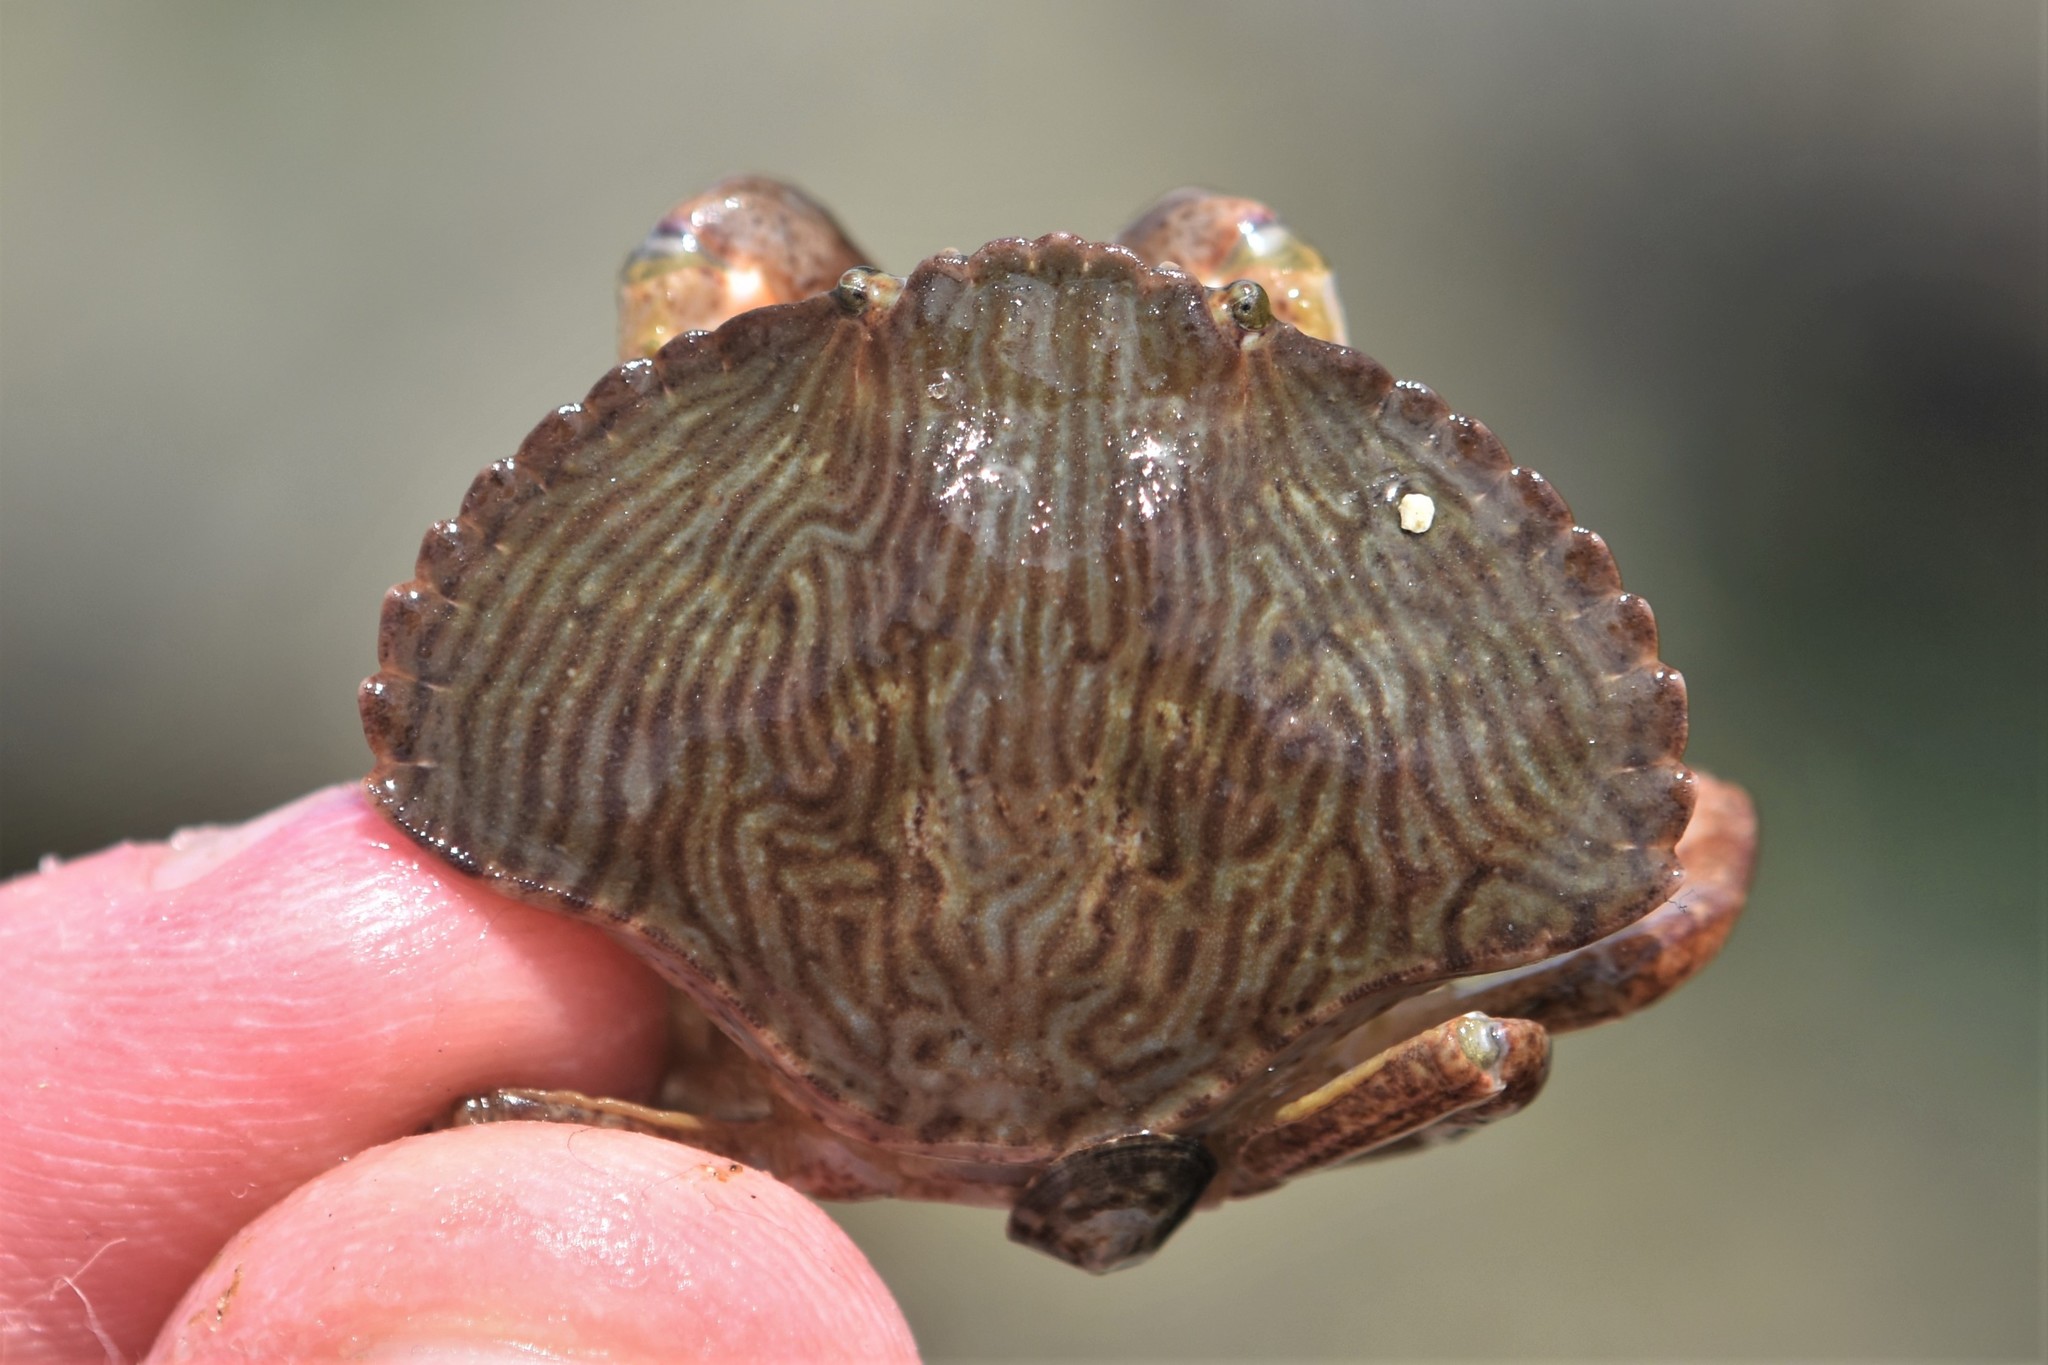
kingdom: Animalia
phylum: Arthropoda
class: Malacostraca
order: Decapoda
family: Cancridae
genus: Cancer
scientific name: Cancer productus
